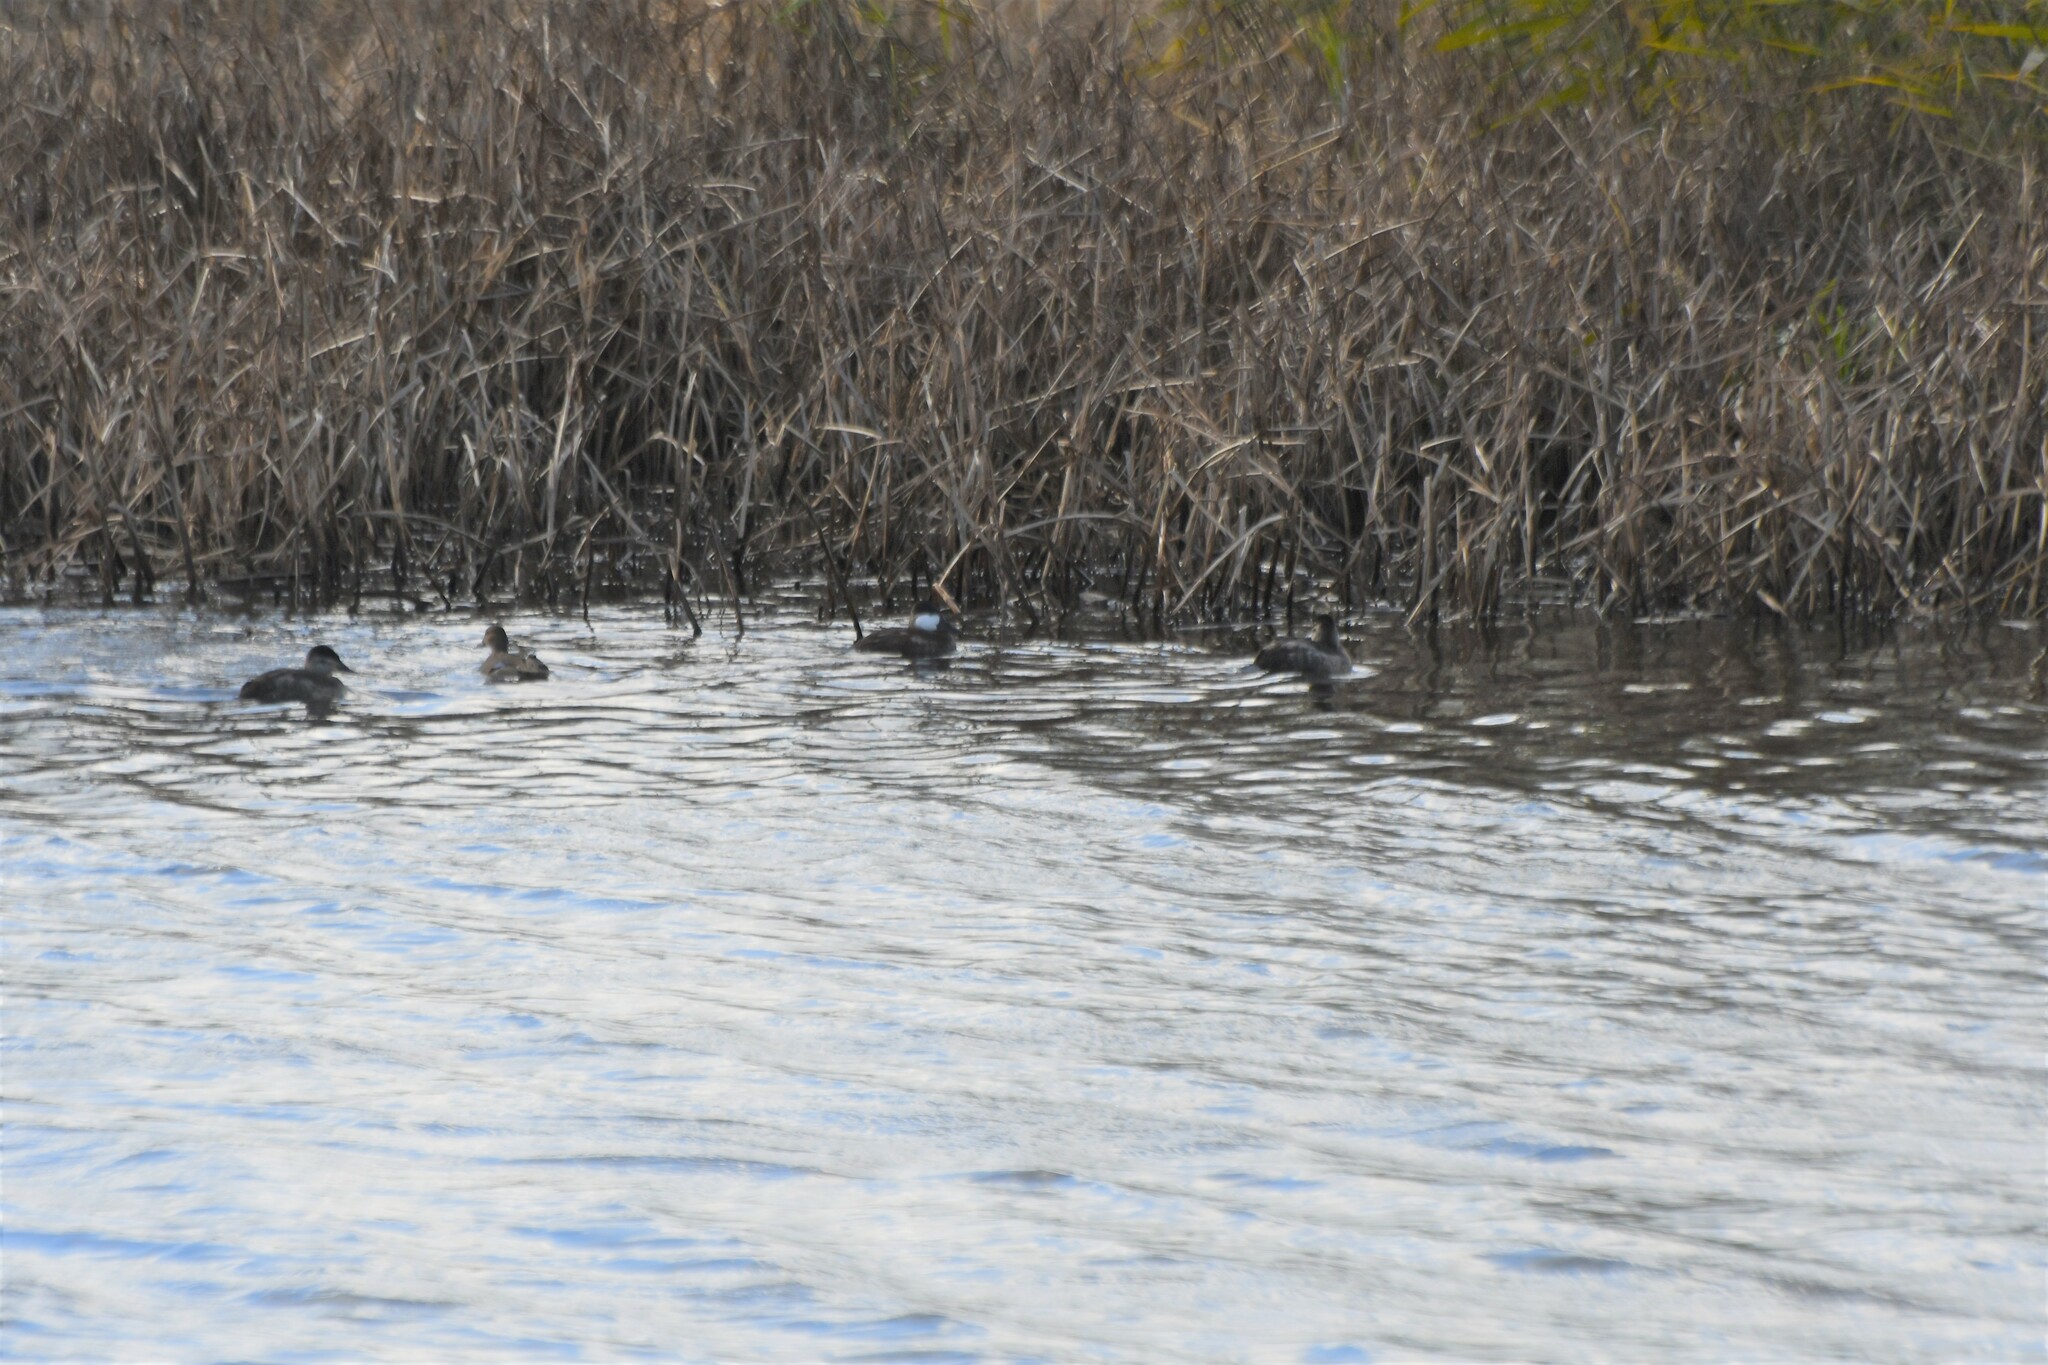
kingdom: Animalia
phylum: Chordata
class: Aves
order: Anseriformes
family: Anatidae
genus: Oxyura
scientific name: Oxyura jamaicensis
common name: Ruddy duck
